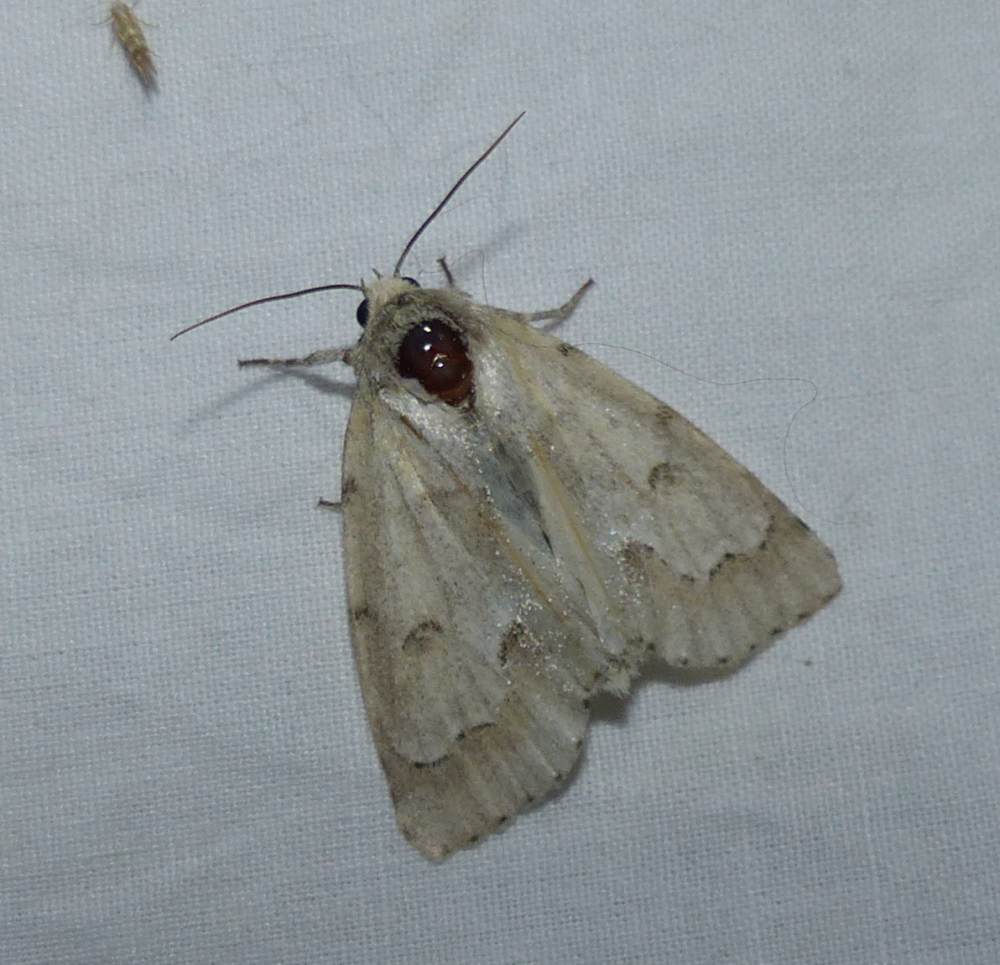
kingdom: Animalia
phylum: Arthropoda
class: Insecta
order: Lepidoptera
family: Noctuidae
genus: Acronicta
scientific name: Acronicta innotata
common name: Unmarked dagger
